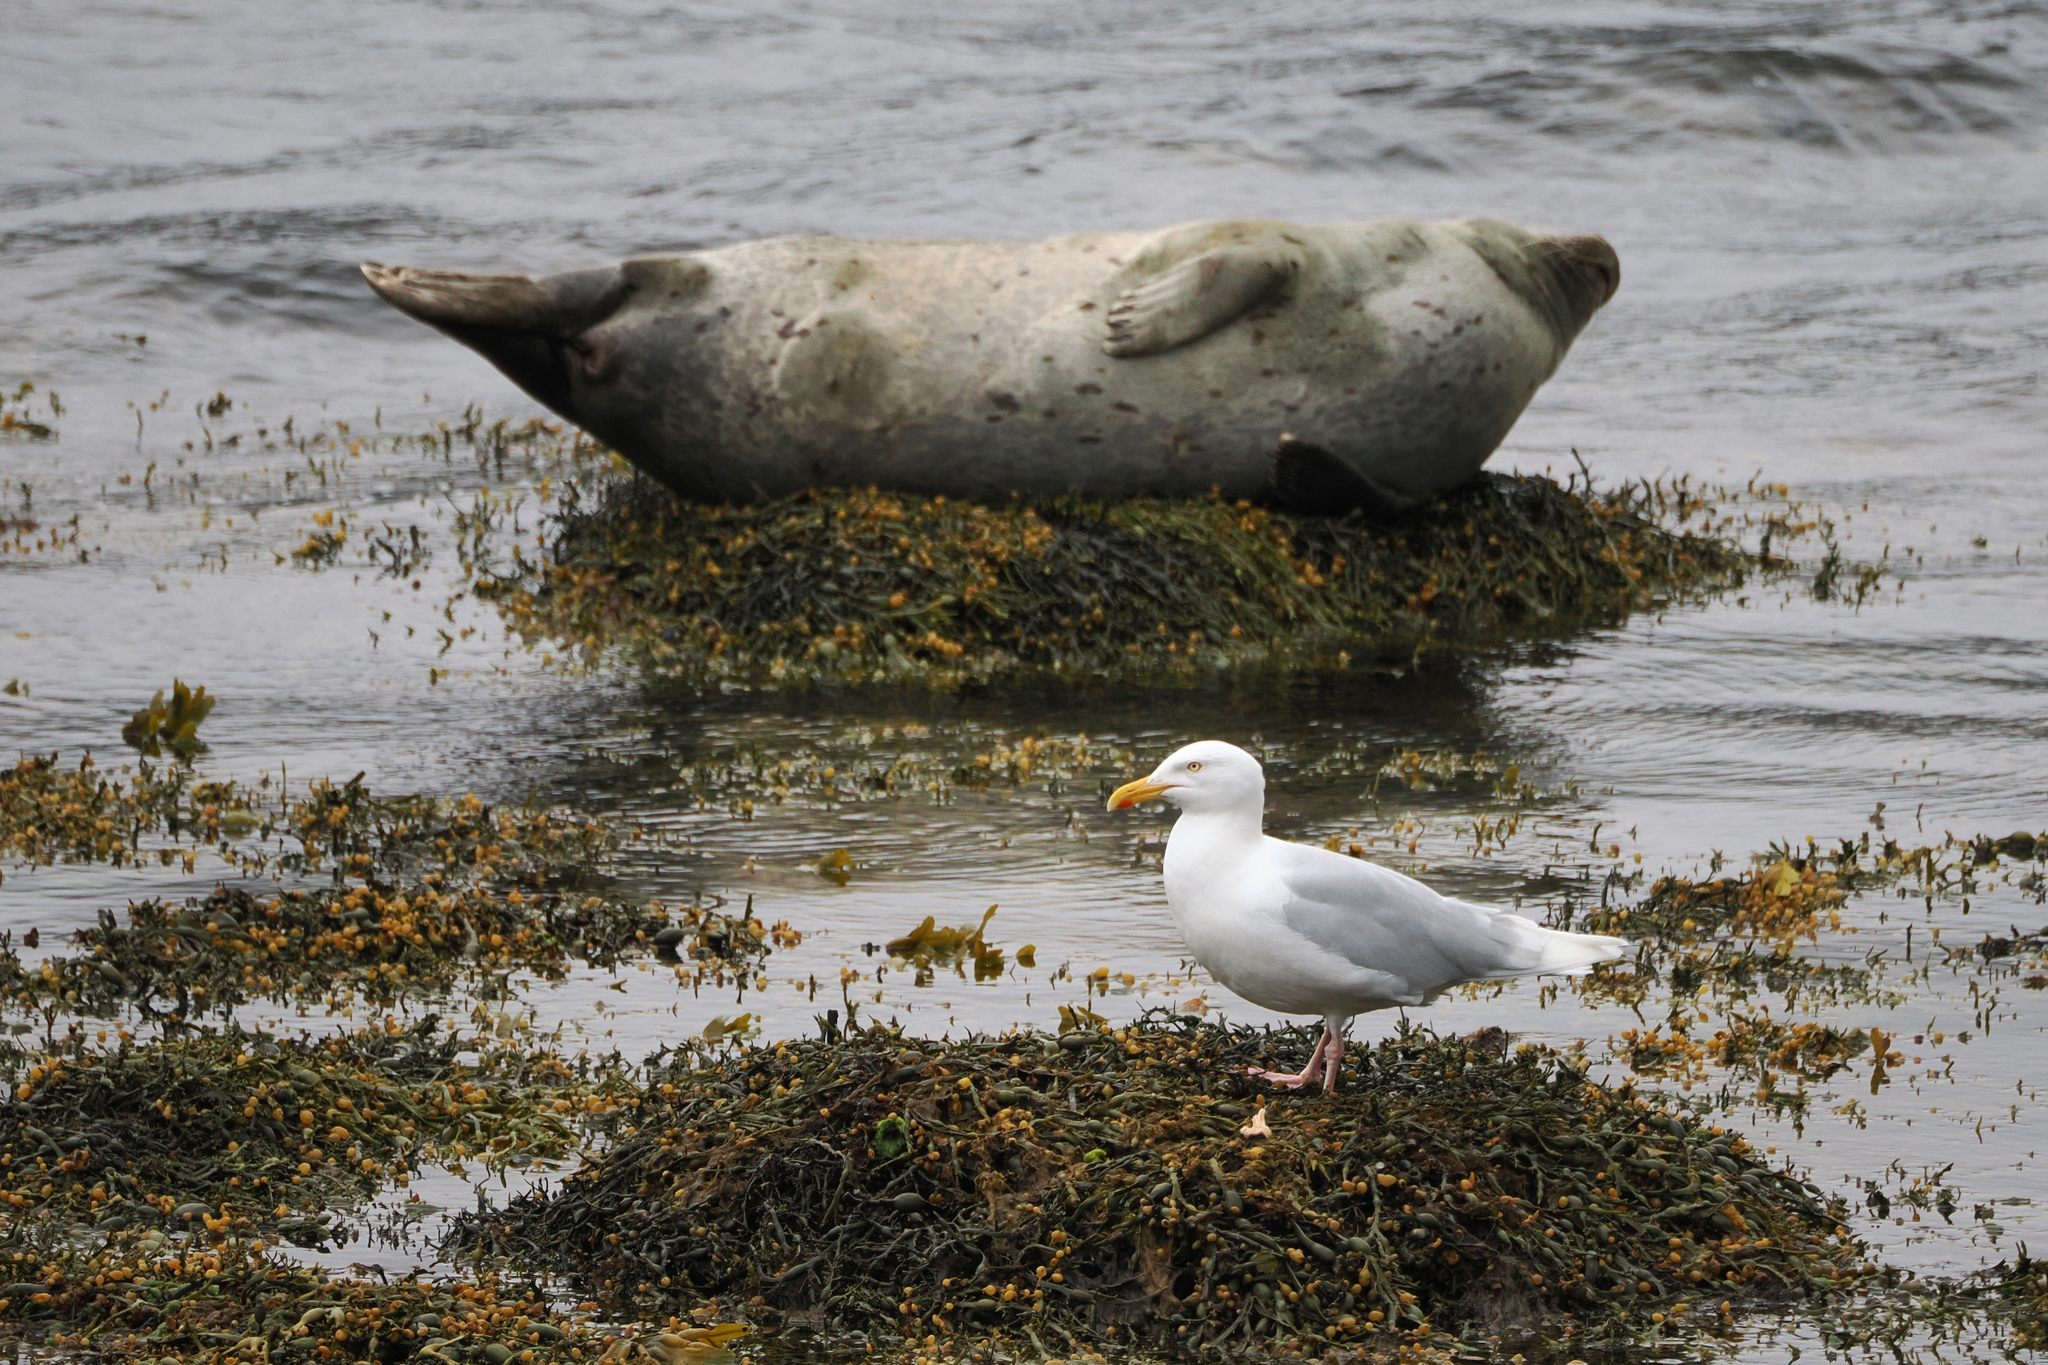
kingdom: Animalia
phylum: Chordata
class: Aves
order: Charadriiformes
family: Laridae
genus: Larus
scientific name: Larus hyperboreus
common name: Glaucous gull
